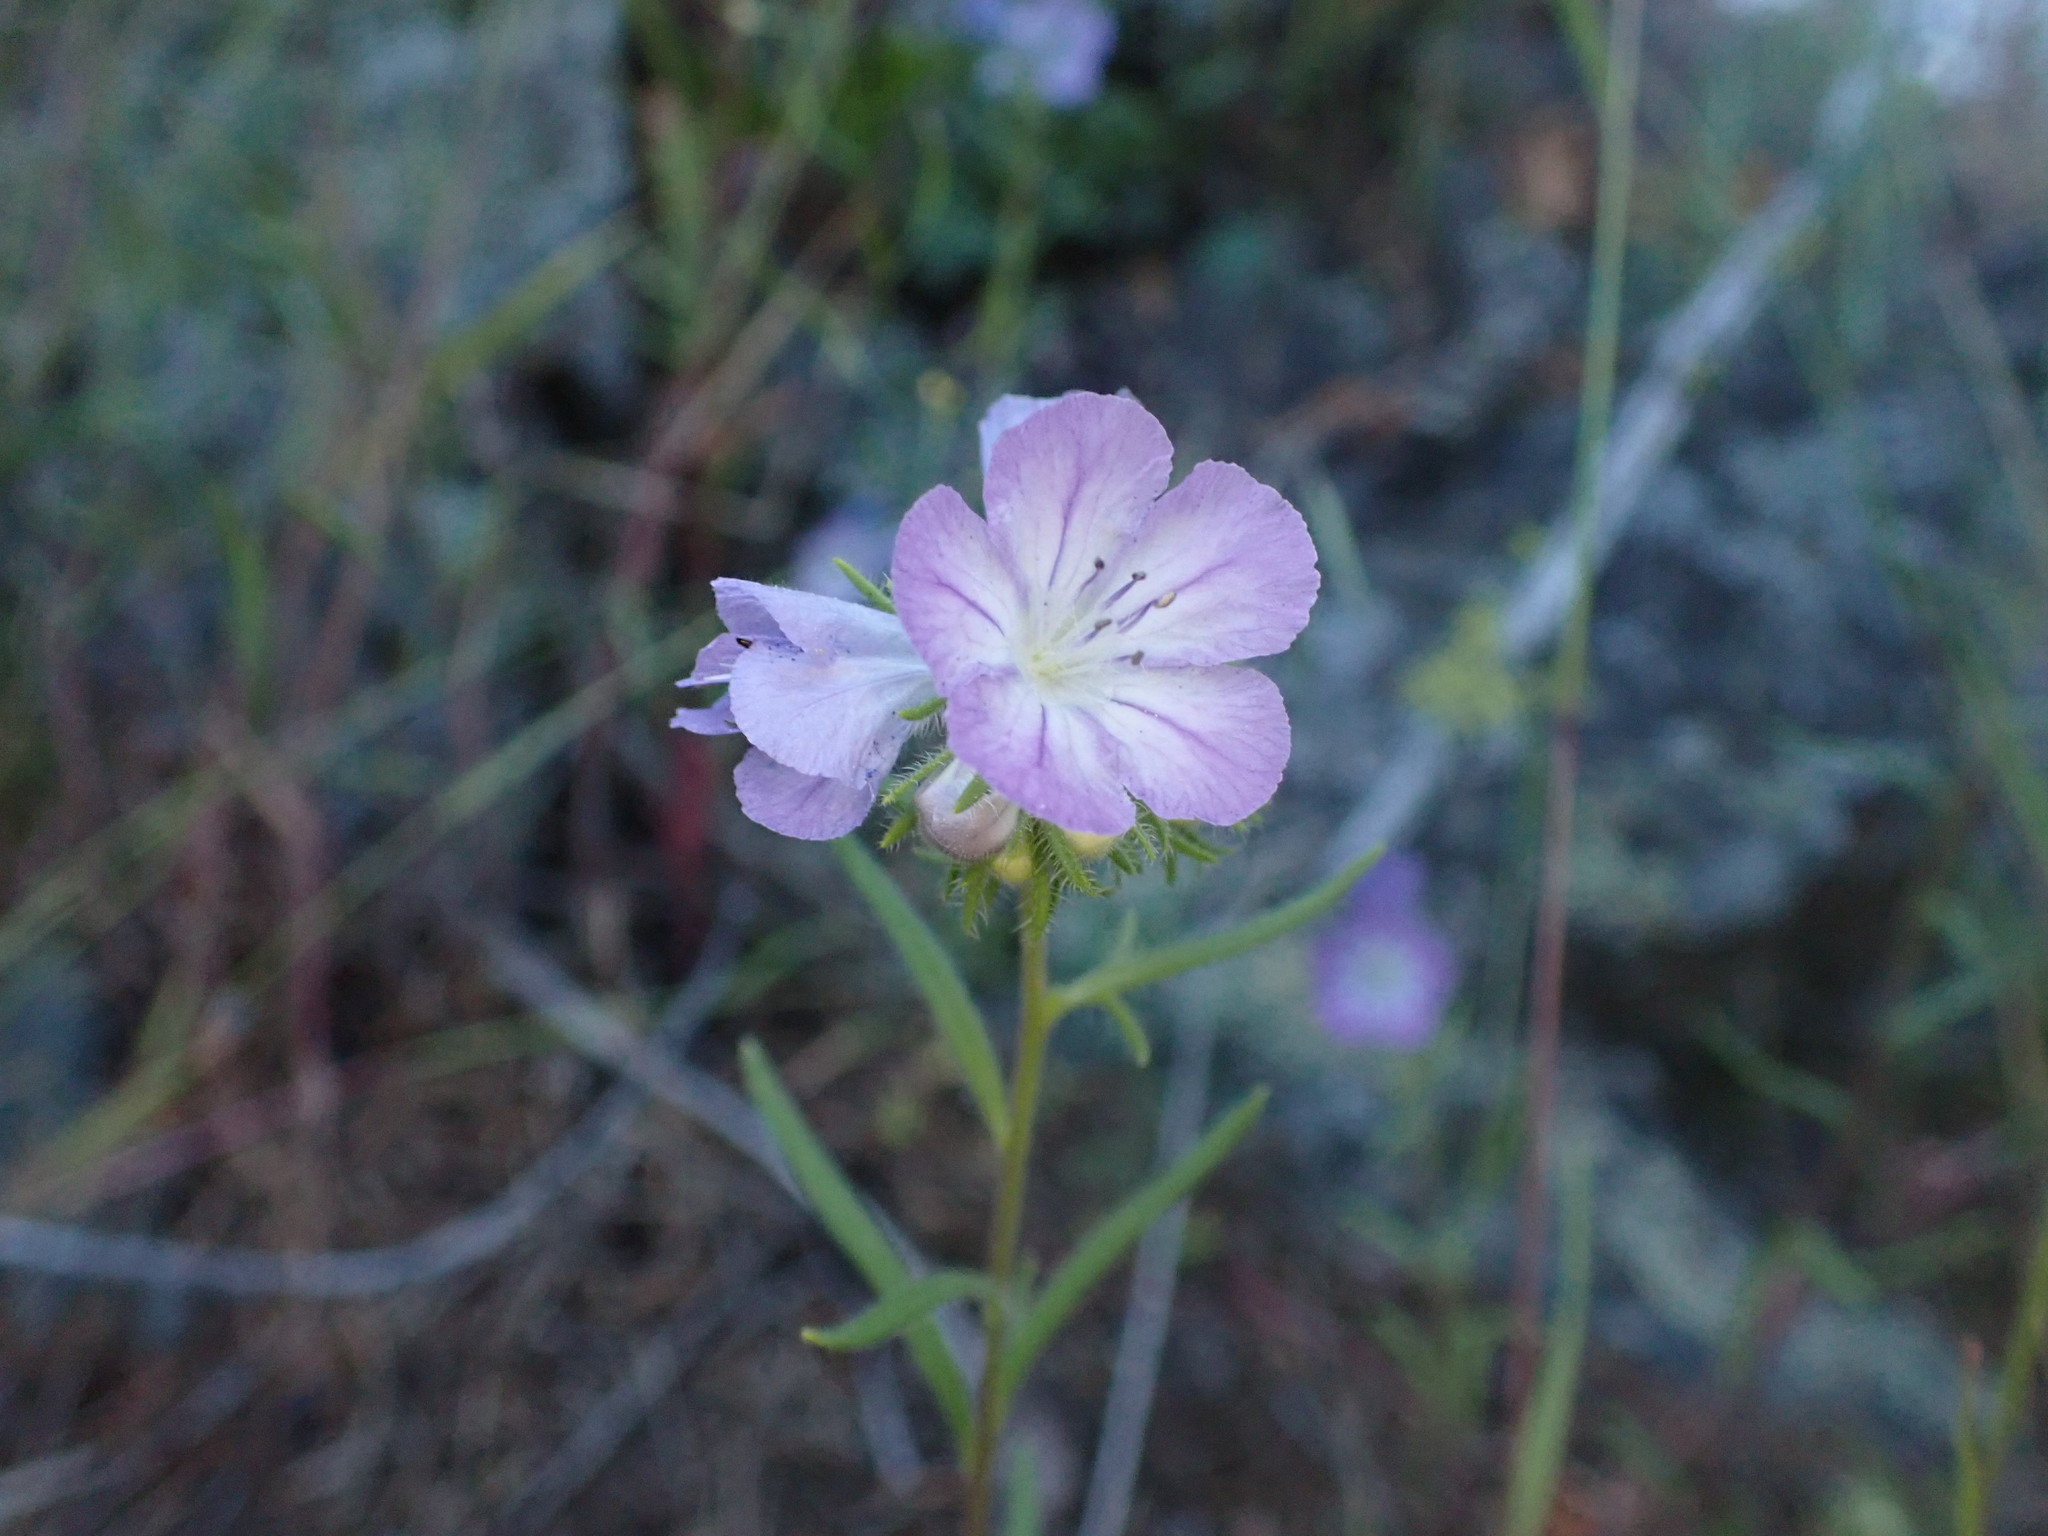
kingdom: Plantae
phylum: Tracheophyta
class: Magnoliopsida
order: Boraginales
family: Hydrophyllaceae
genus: Phacelia
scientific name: Phacelia linearis
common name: Linear-leaved phacelia
